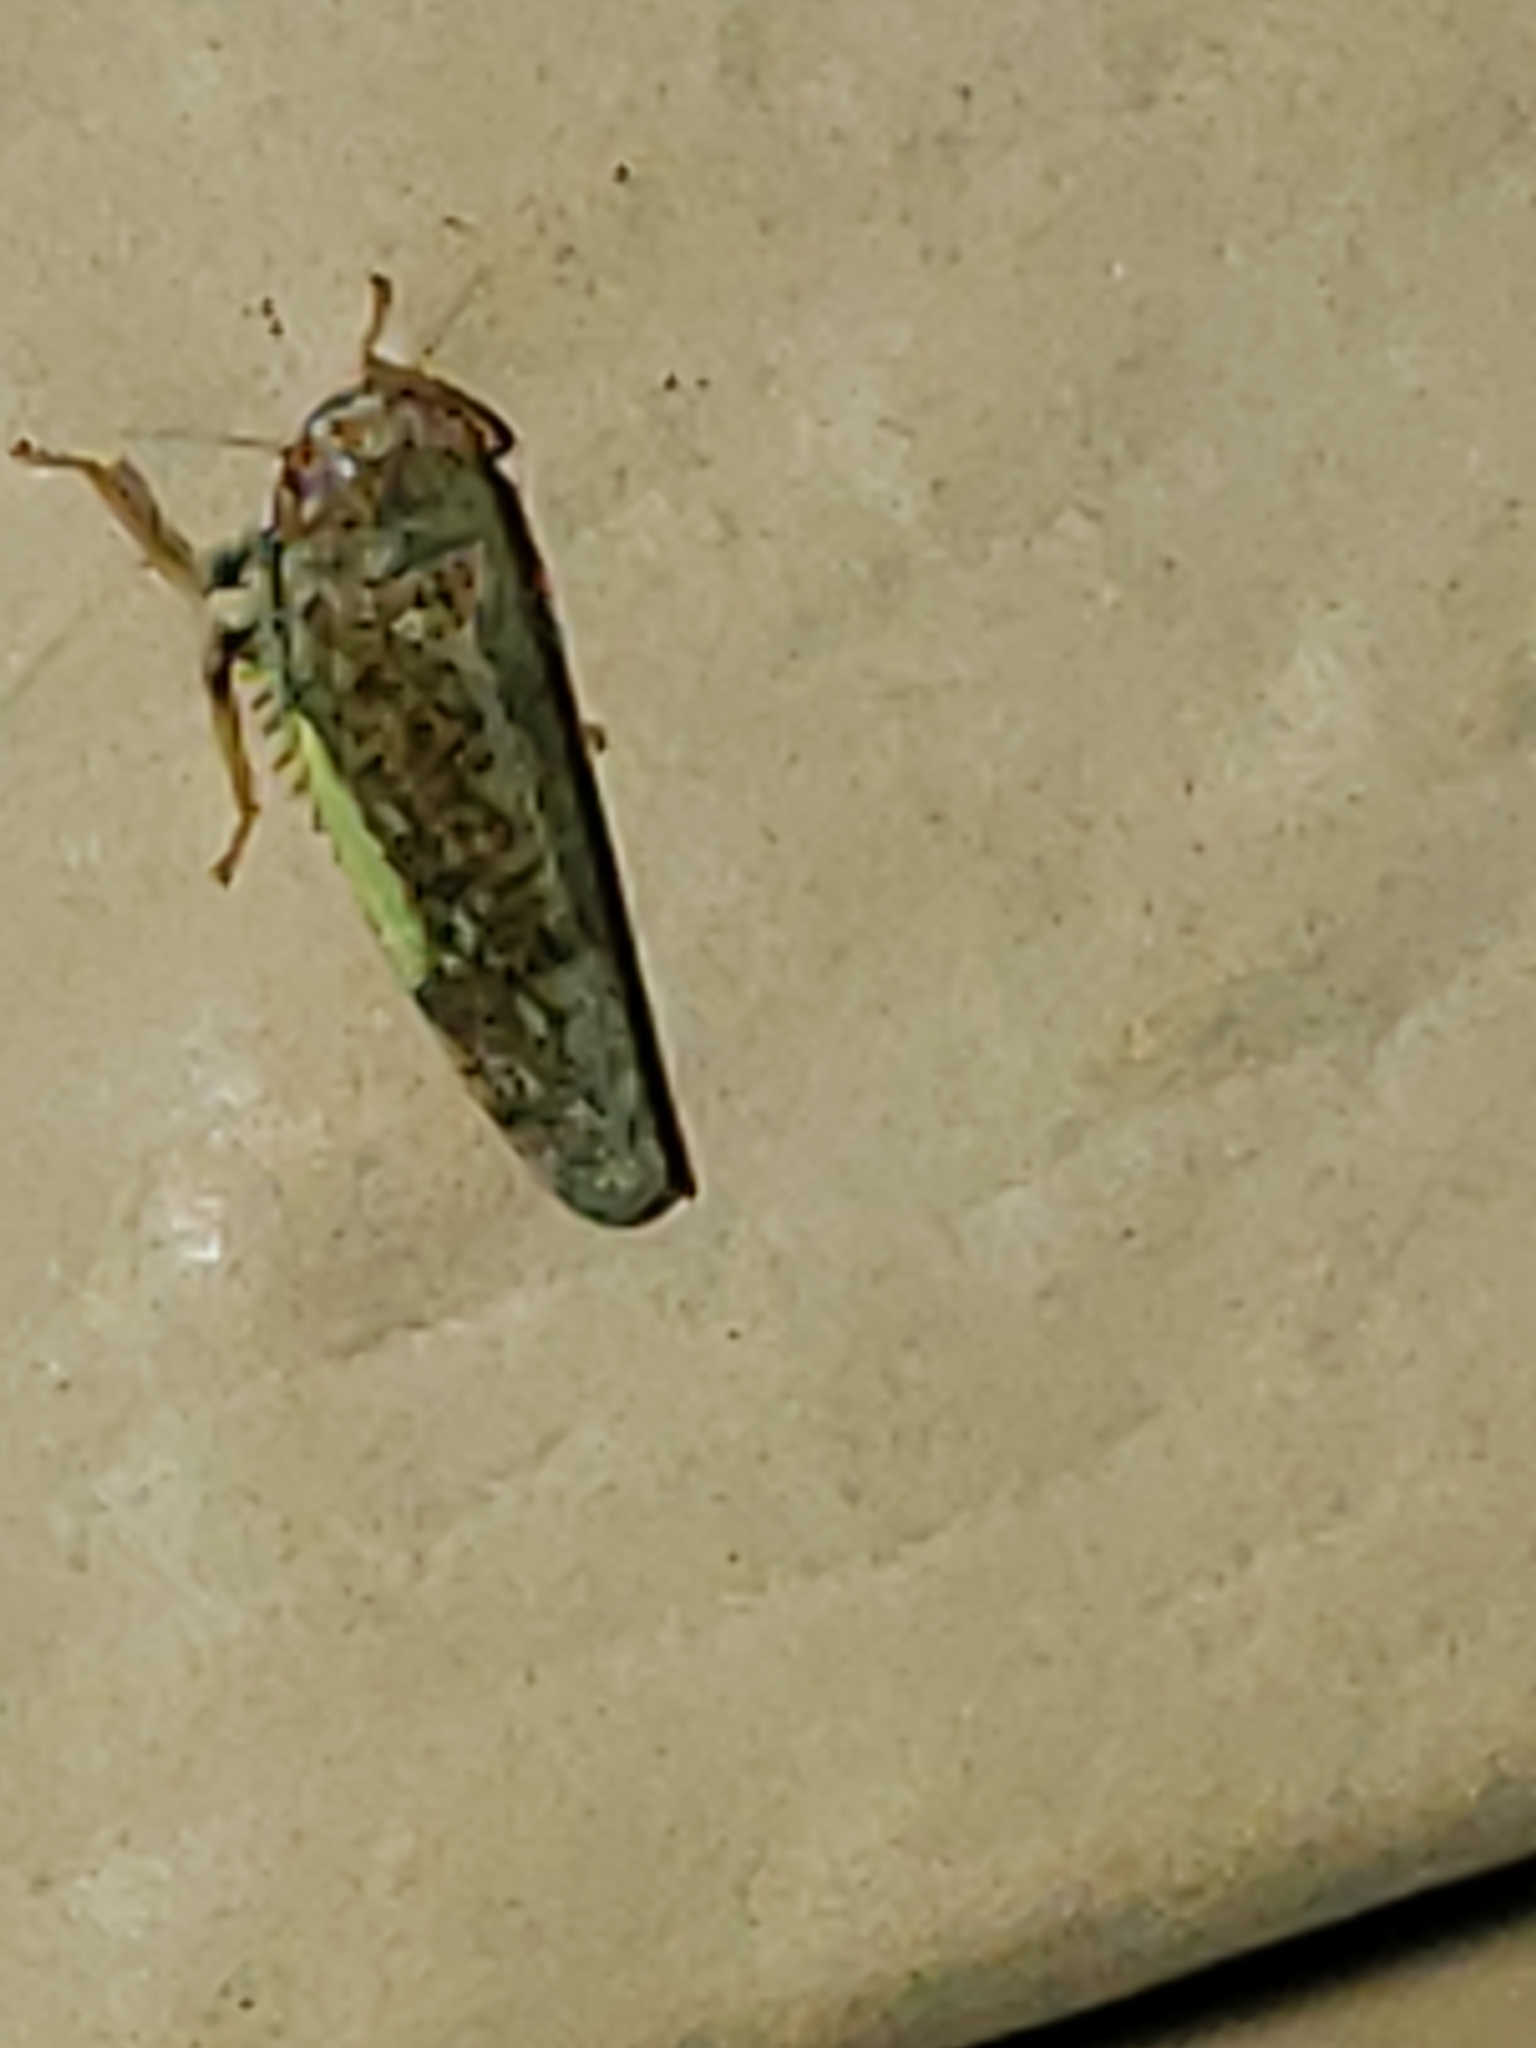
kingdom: Animalia
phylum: Arthropoda
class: Insecta
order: Hemiptera
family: Cicadellidae
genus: Orientus
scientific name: Orientus ishidae
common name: Japanese leafhopper
